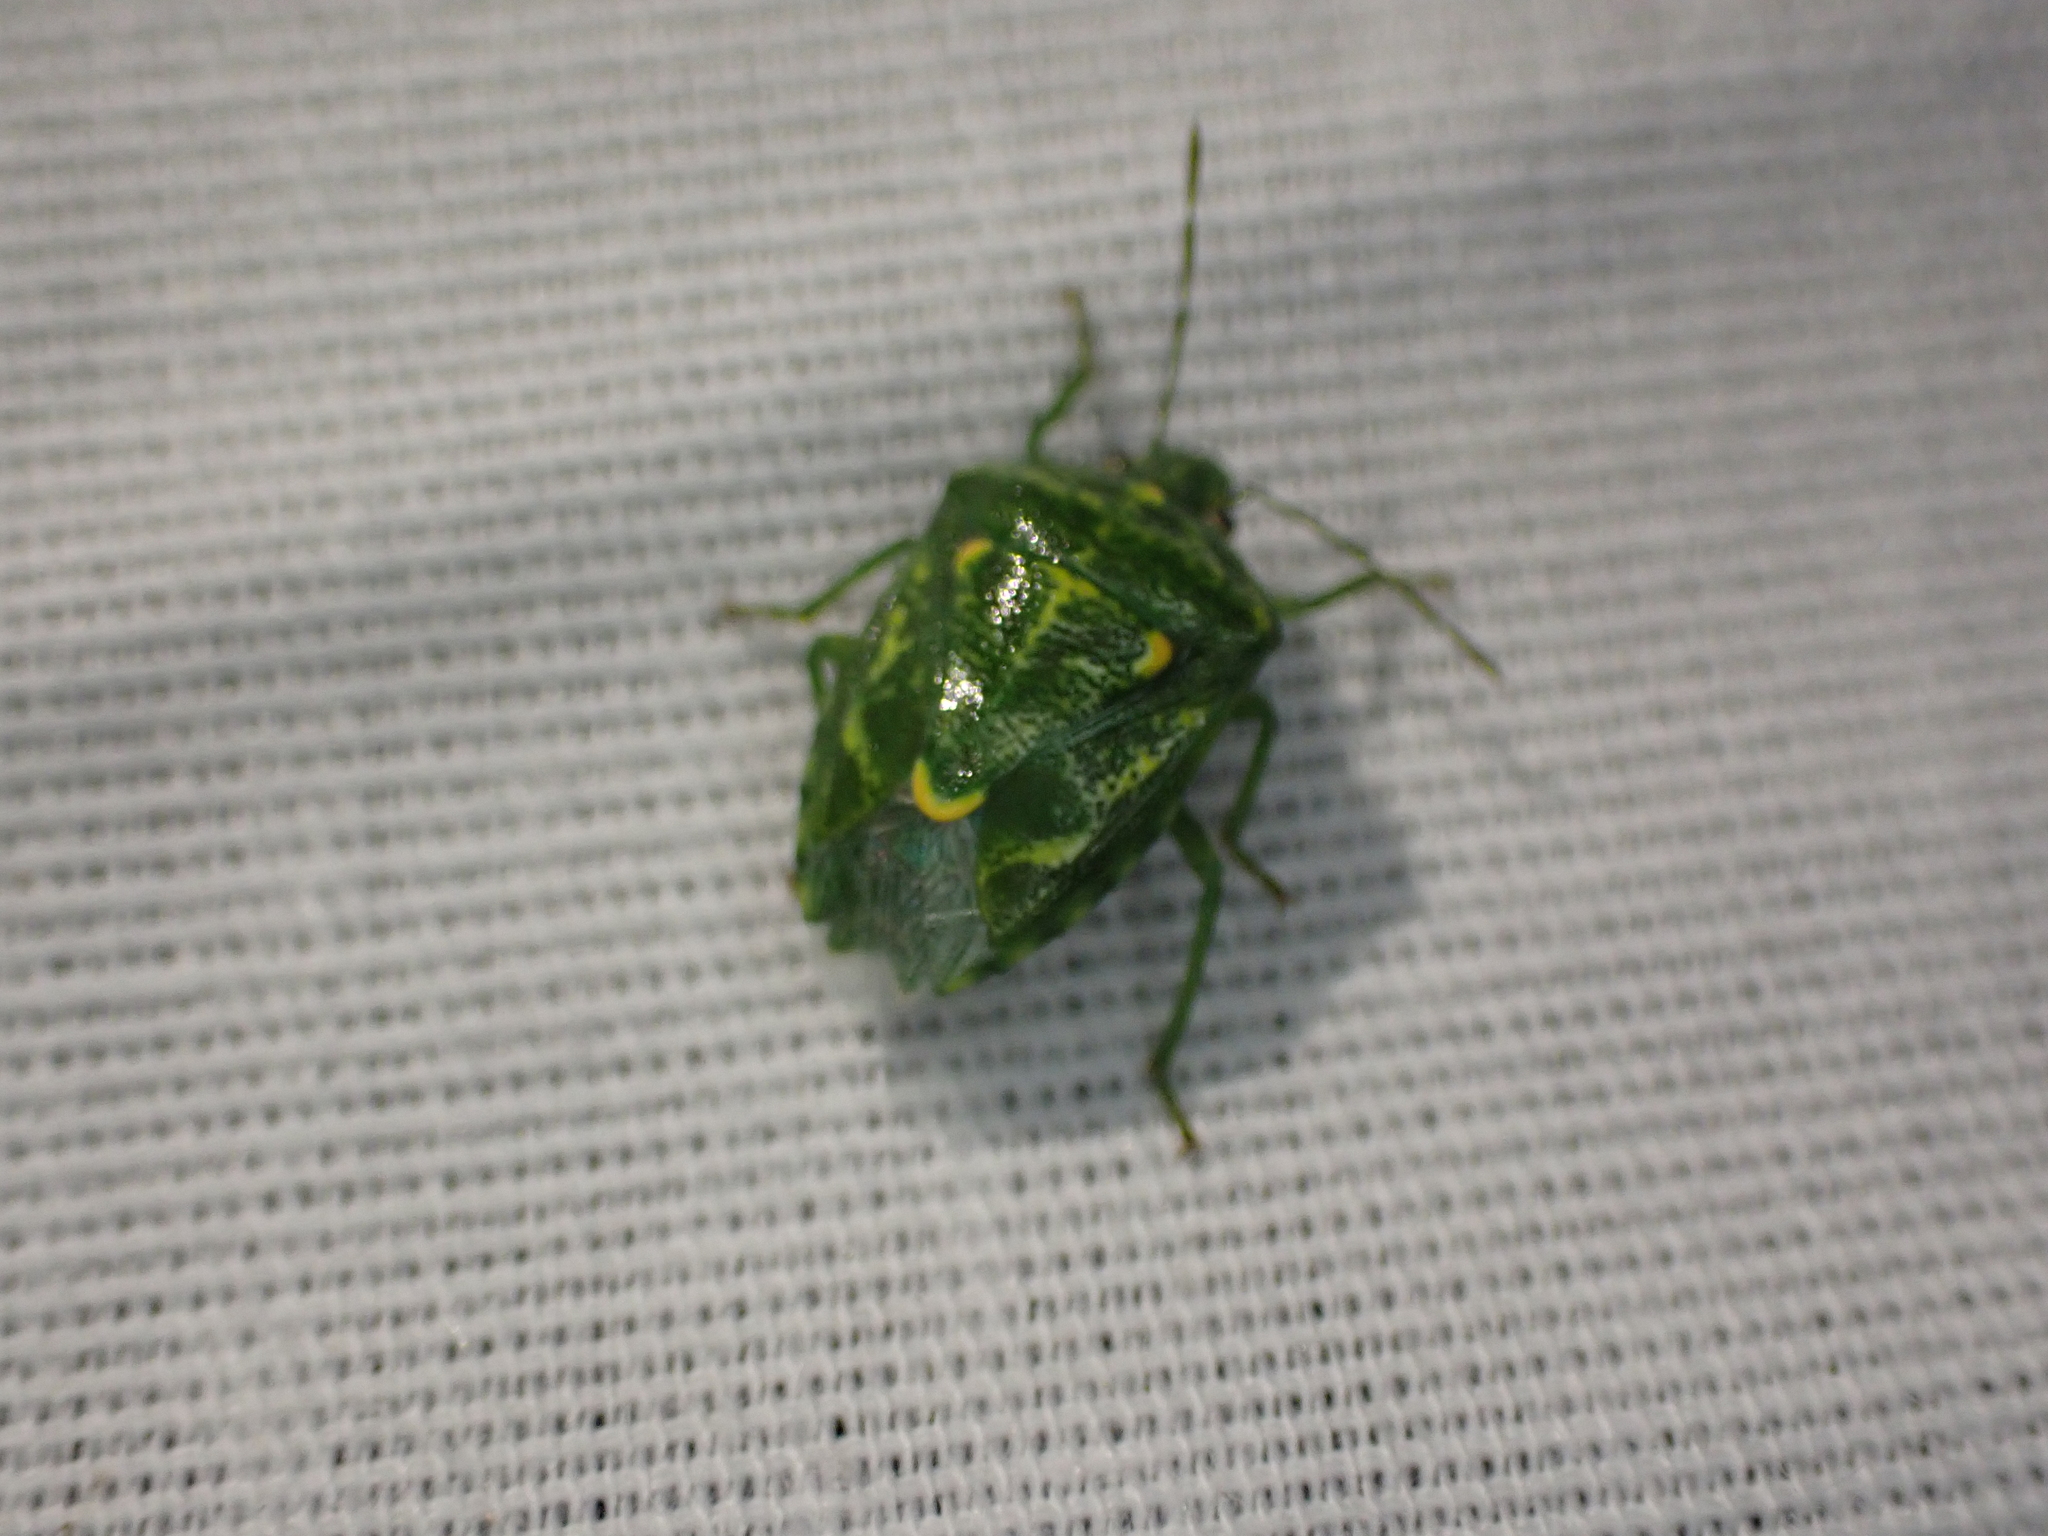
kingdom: Animalia
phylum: Arthropoda
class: Insecta
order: Hemiptera
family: Pentatomidae
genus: Banasa
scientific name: Banasa euchlora
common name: Cedar berry bug
